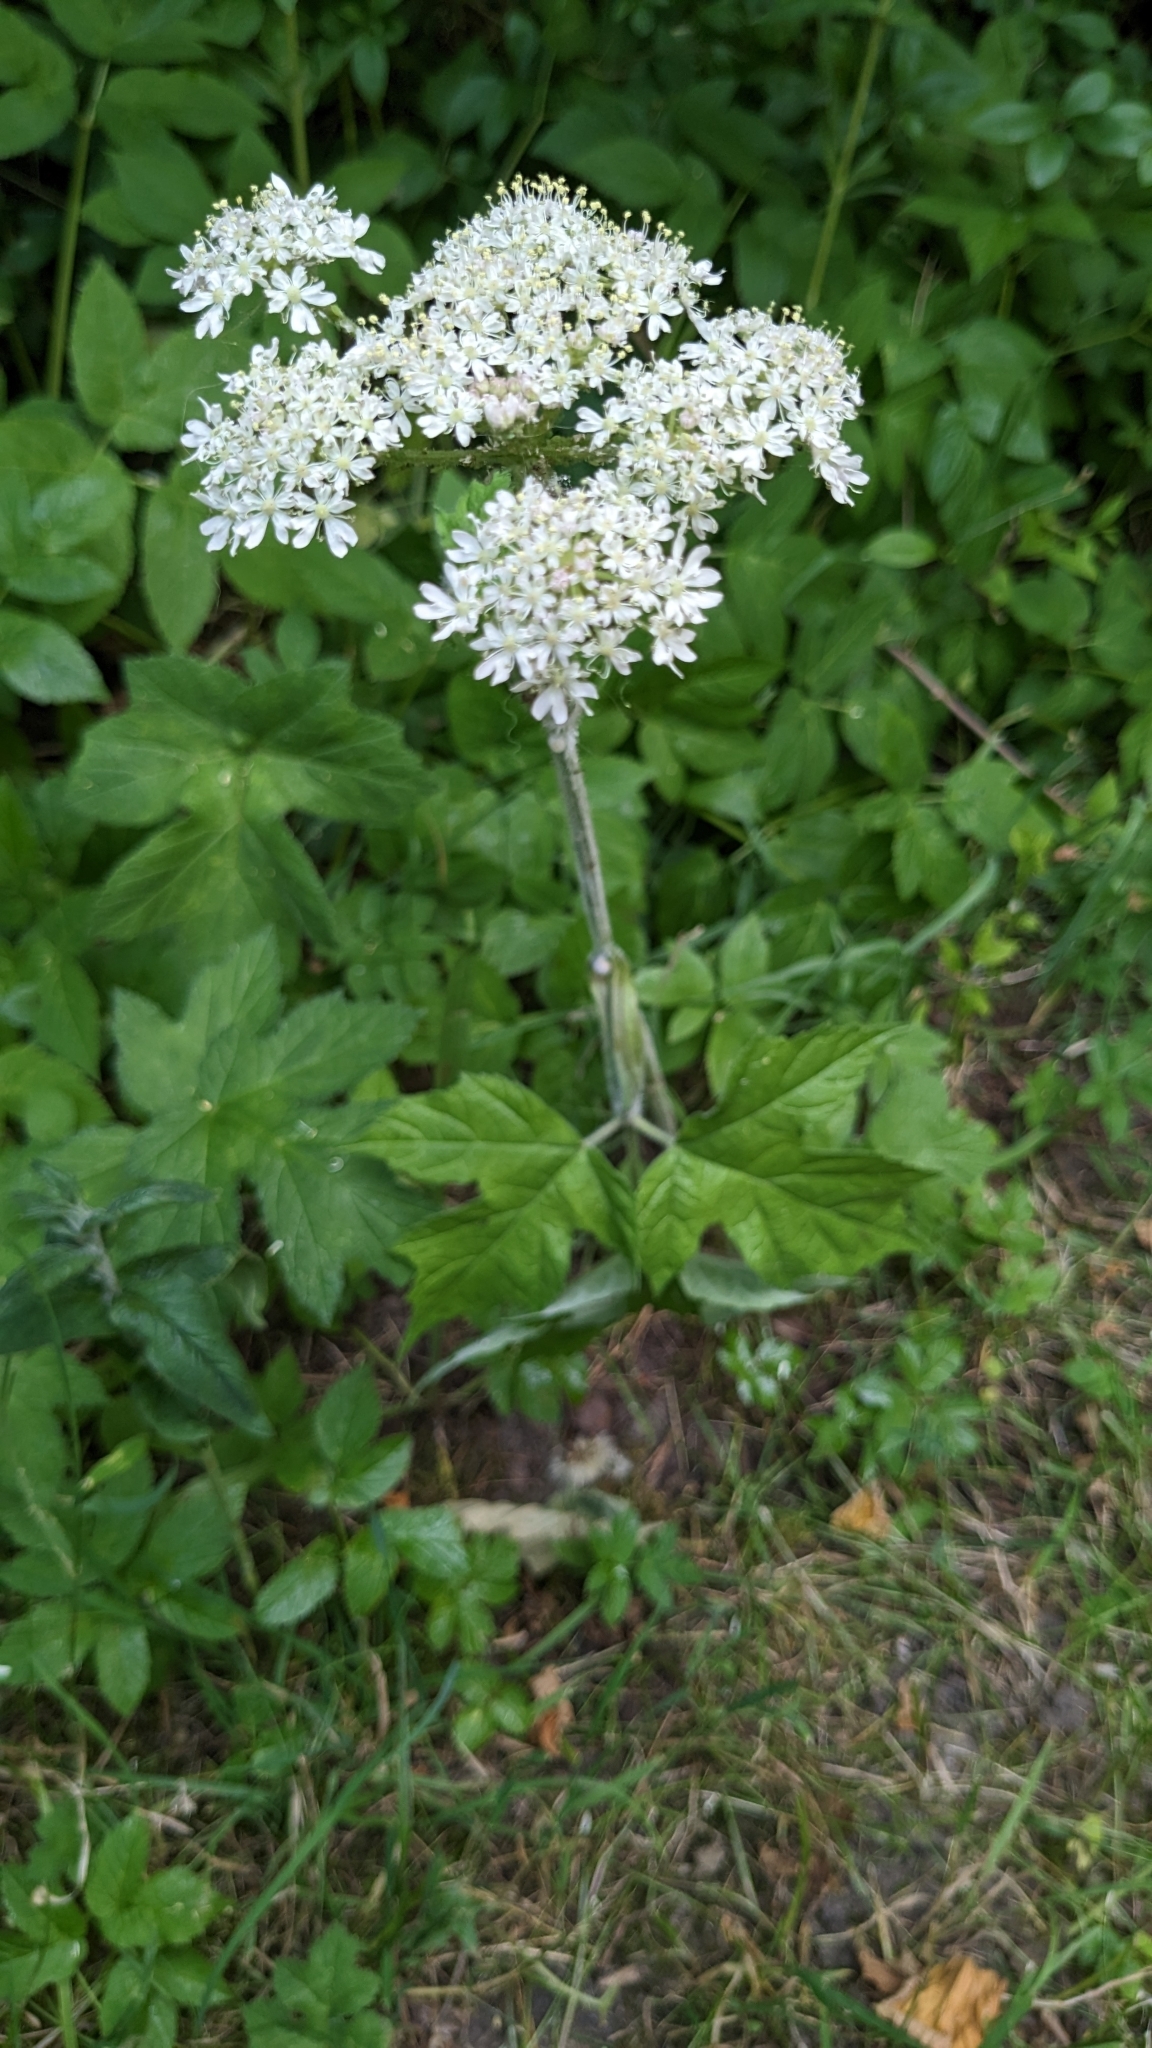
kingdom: Plantae
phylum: Tracheophyta
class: Magnoliopsida
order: Apiales
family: Apiaceae
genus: Heracleum
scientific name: Heracleum sphondylium
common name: Hogweed
